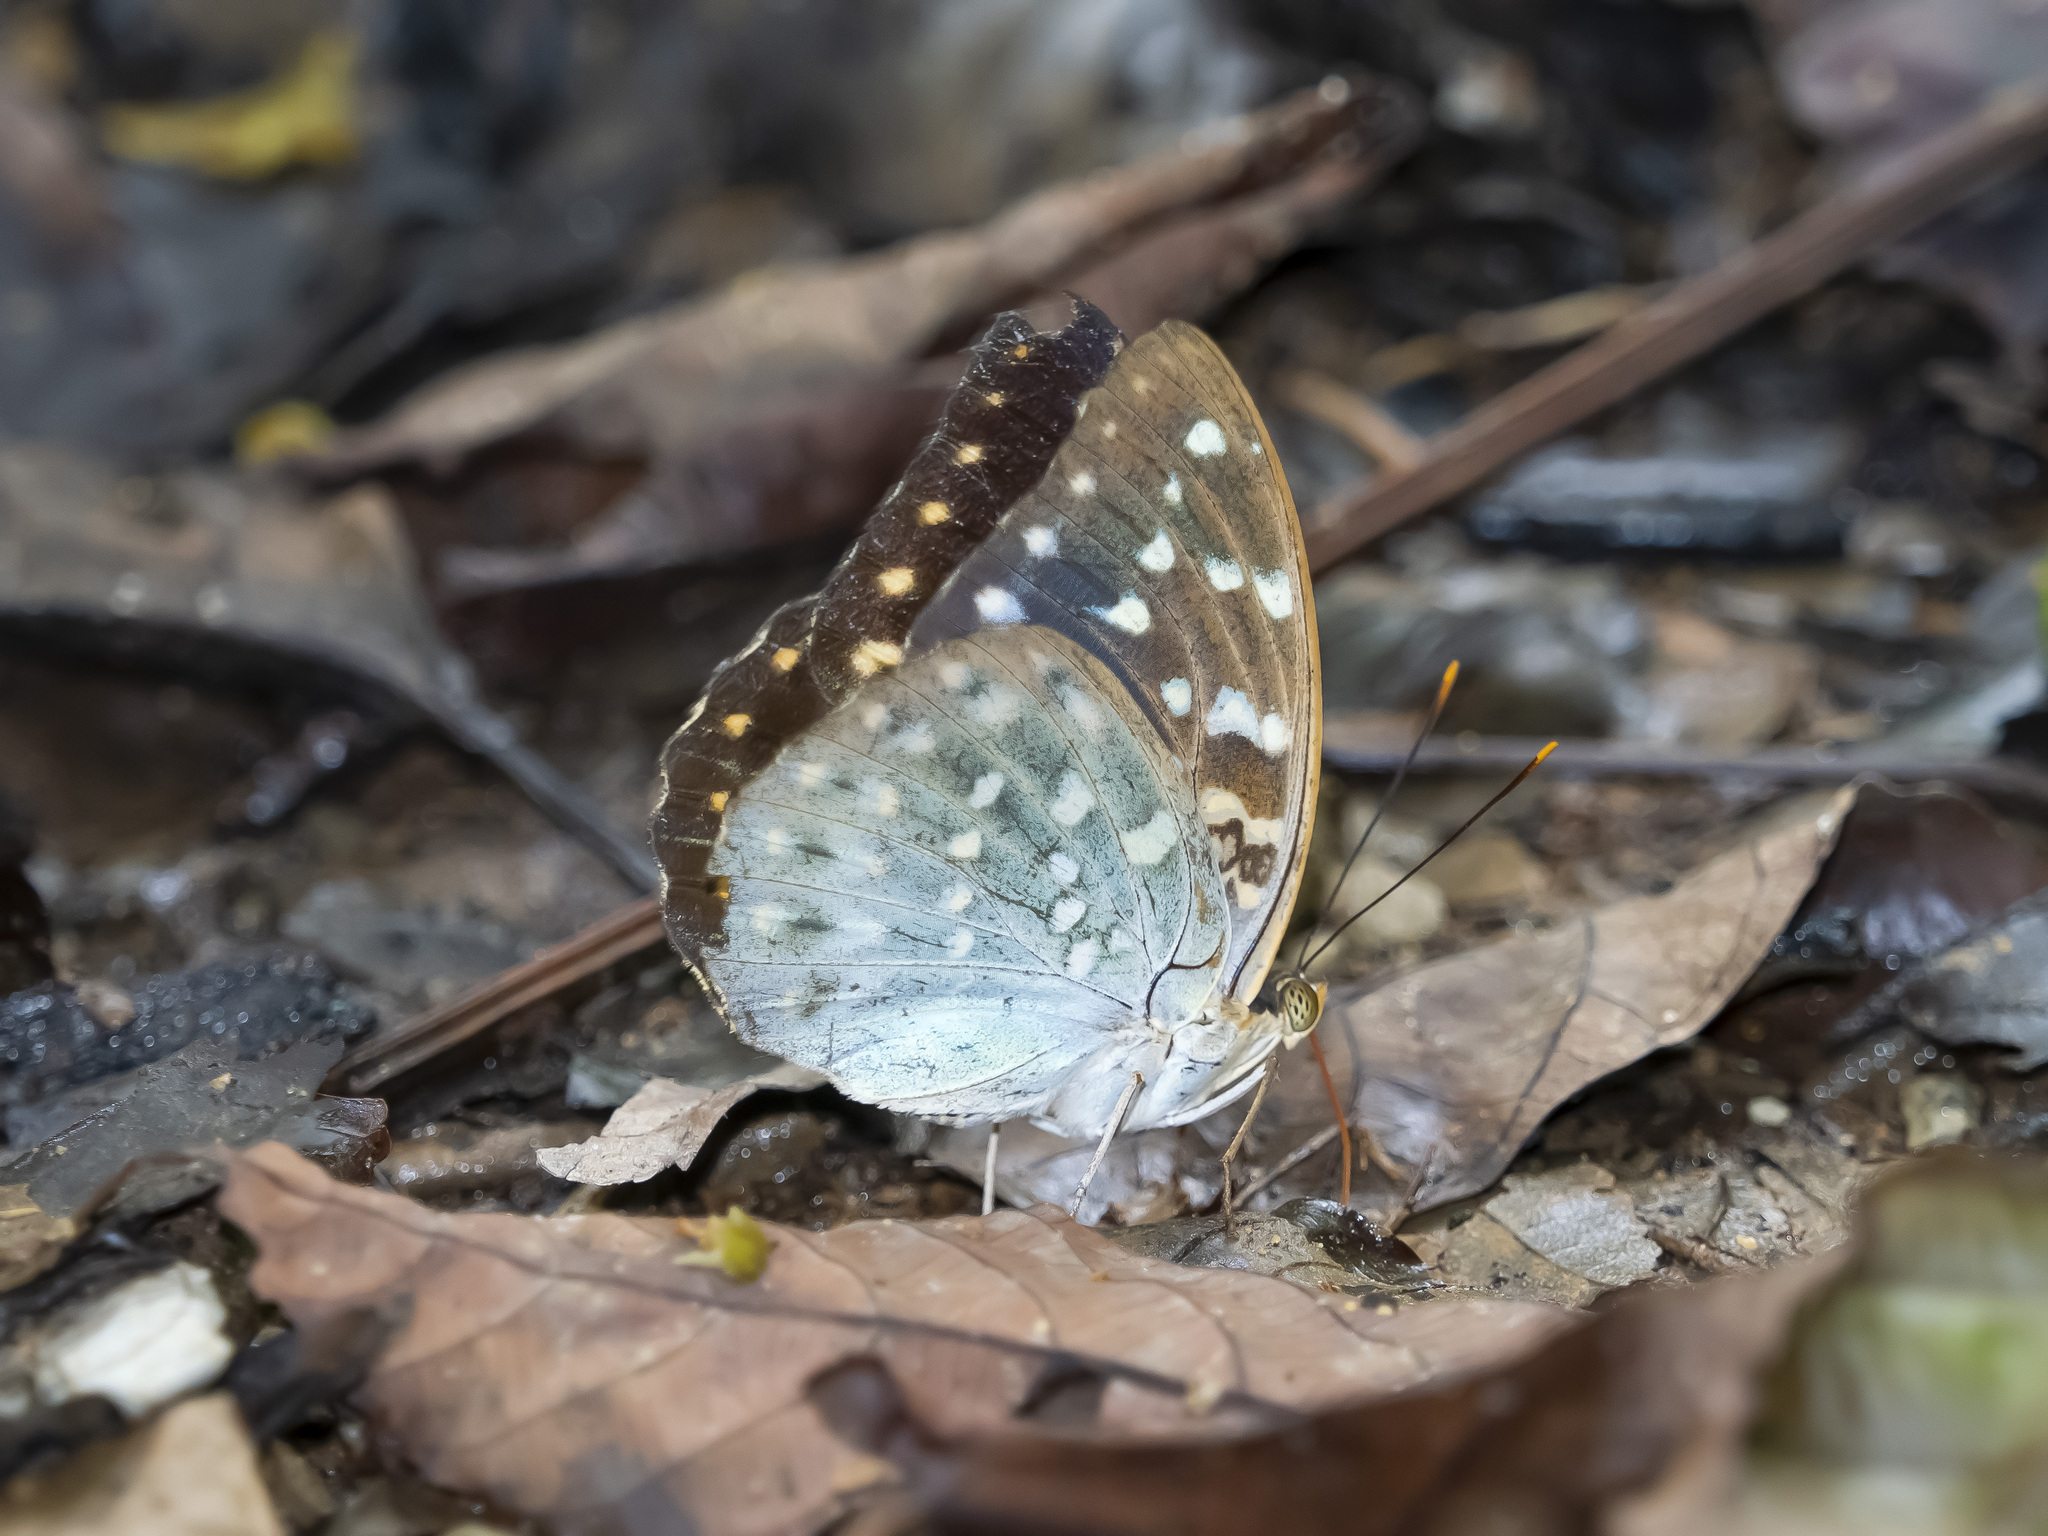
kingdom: Animalia
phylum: Arthropoda
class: Insecta
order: Lepidoptera
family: Nymphalidae
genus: Lexias
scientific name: Lexias pardalis
